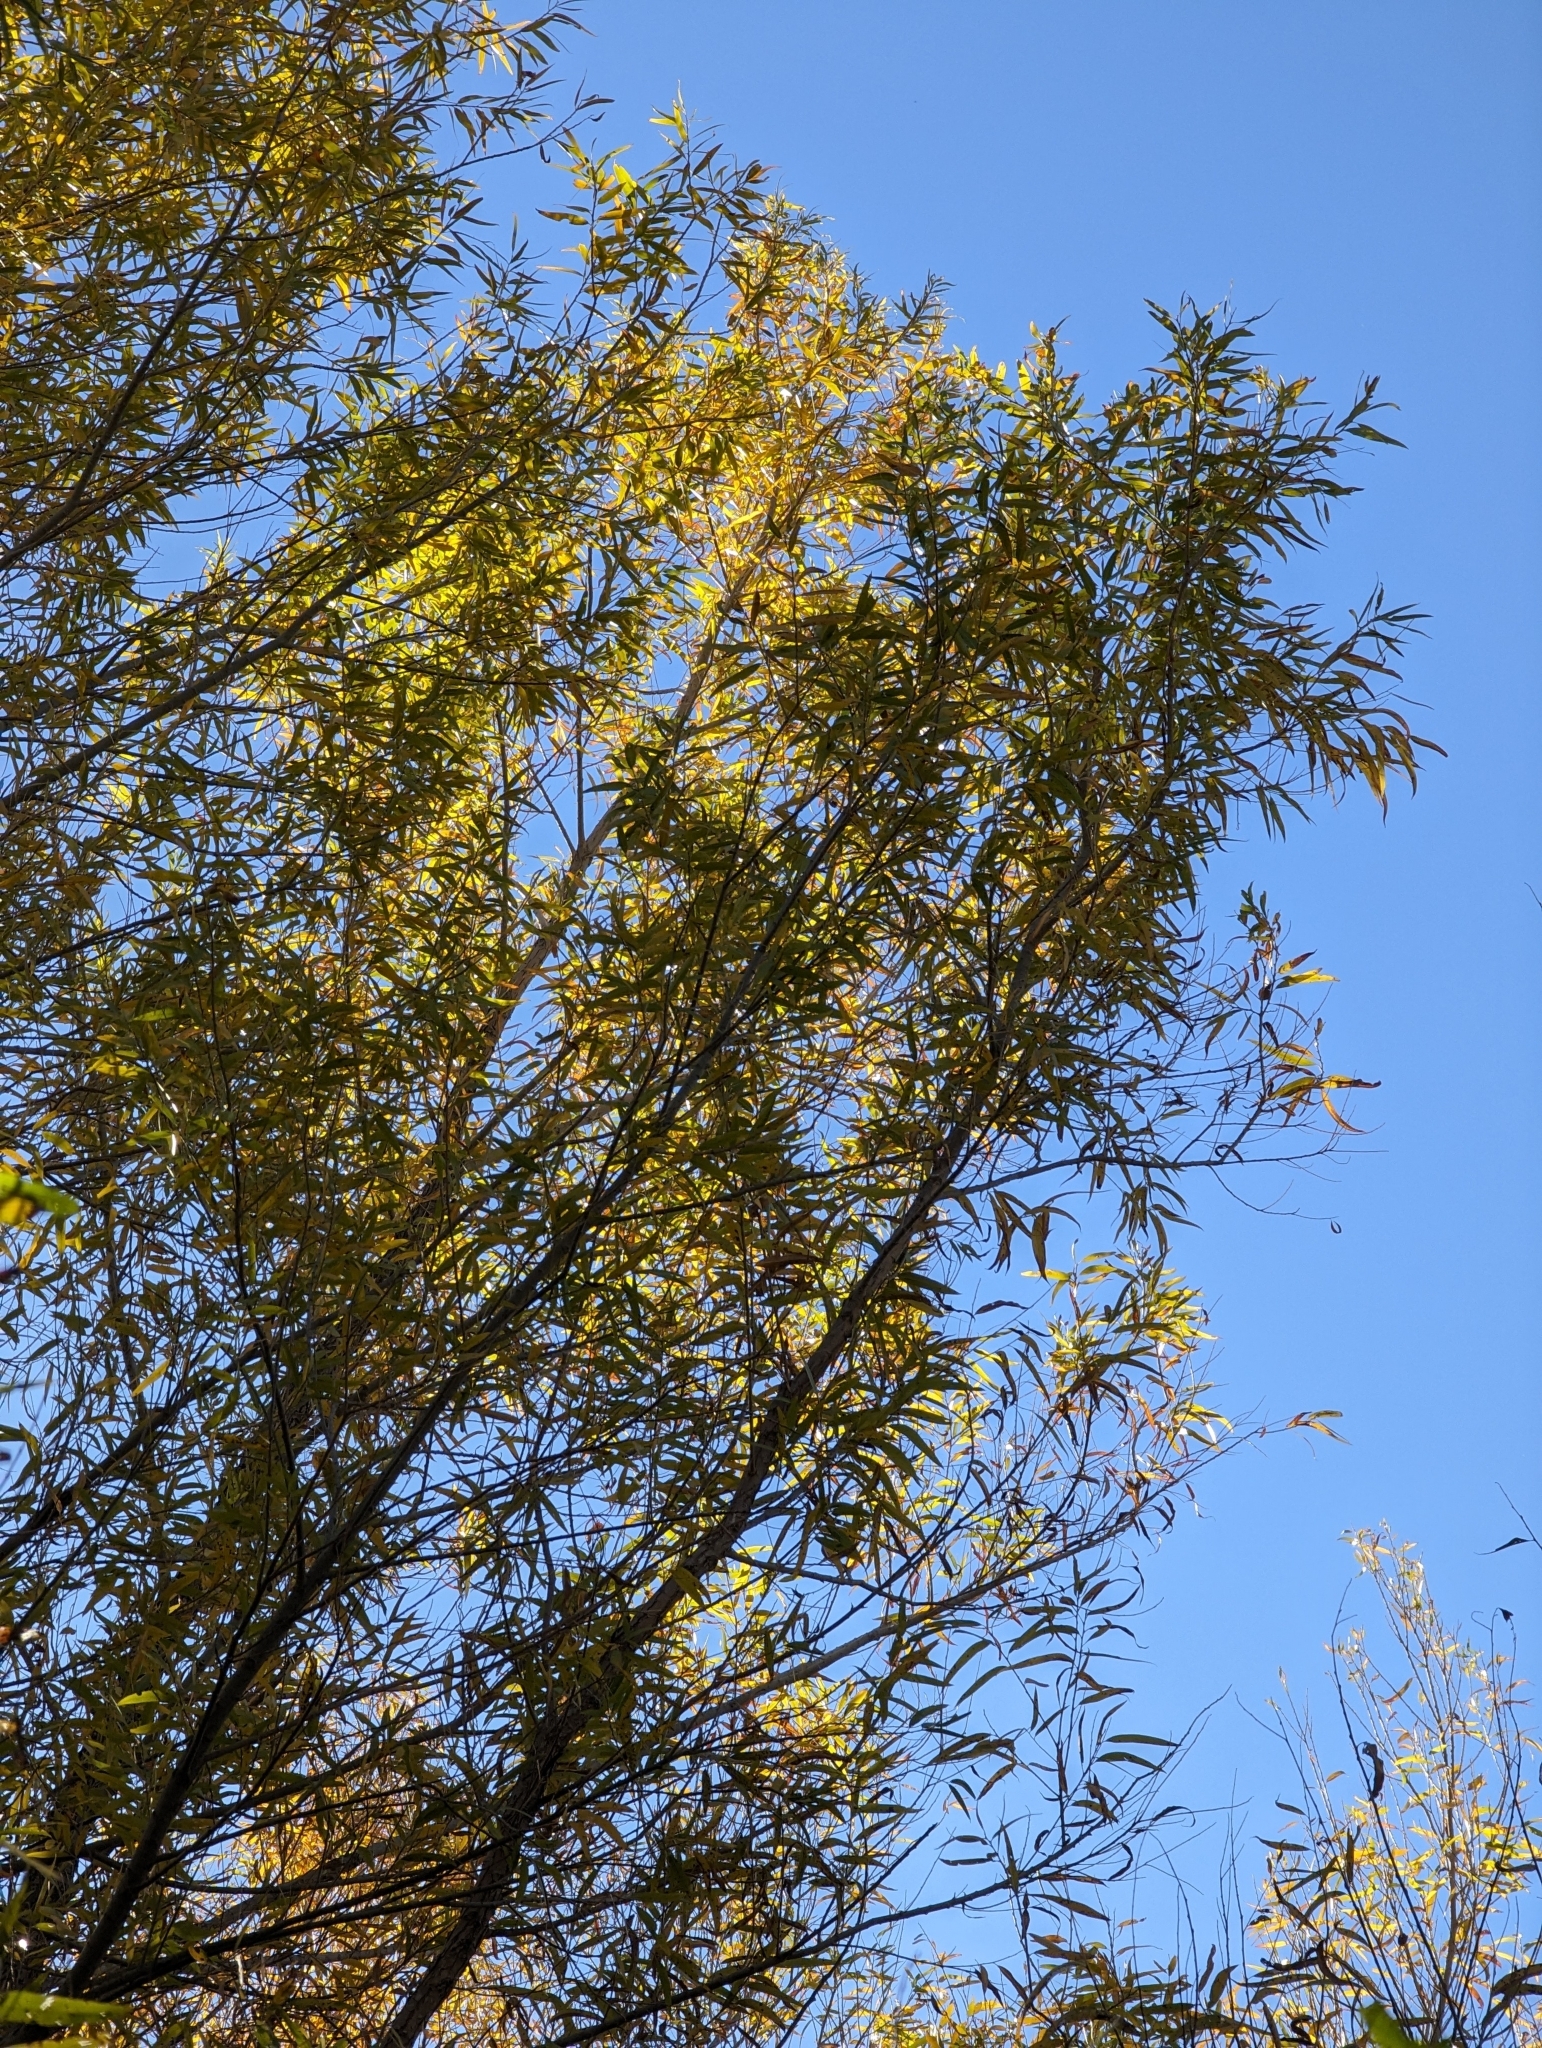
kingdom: Plantae
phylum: Tracheophyta
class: Magnoliopsida
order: Malpighiales
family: Salicaceae
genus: Salix
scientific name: Salix gooddingii
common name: Goodding's willow
